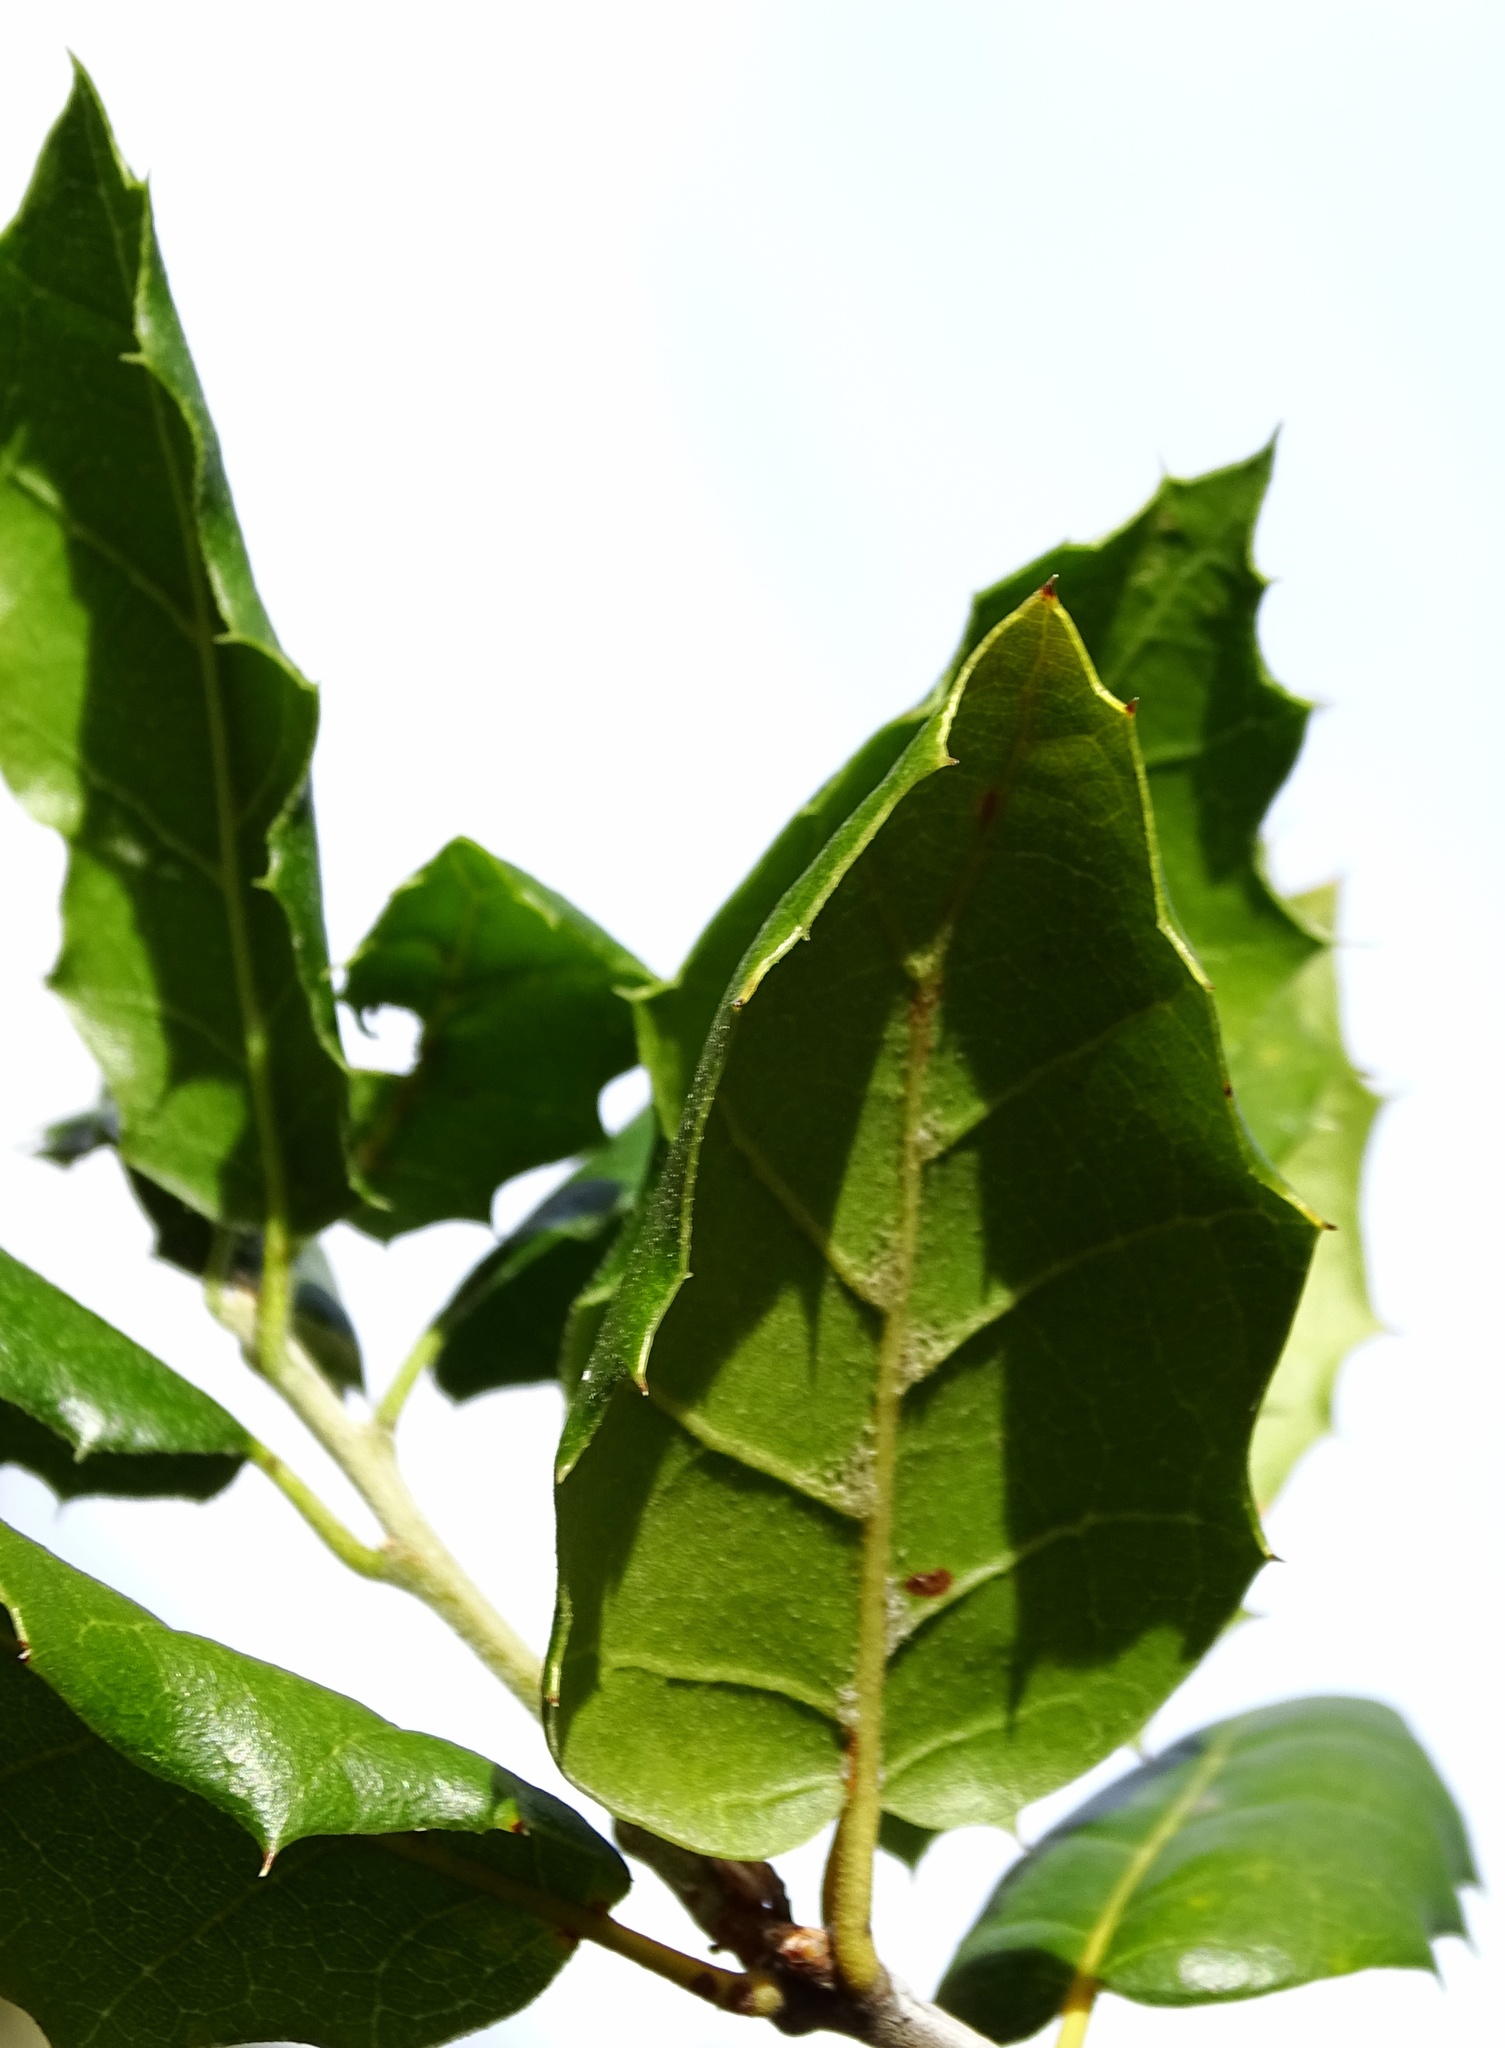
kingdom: Plantae
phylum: Tracheophyta
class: Magnoliopsida
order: Fagales
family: Fagaceae
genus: Quercus
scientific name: Quercus agrifolia
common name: California live oak
